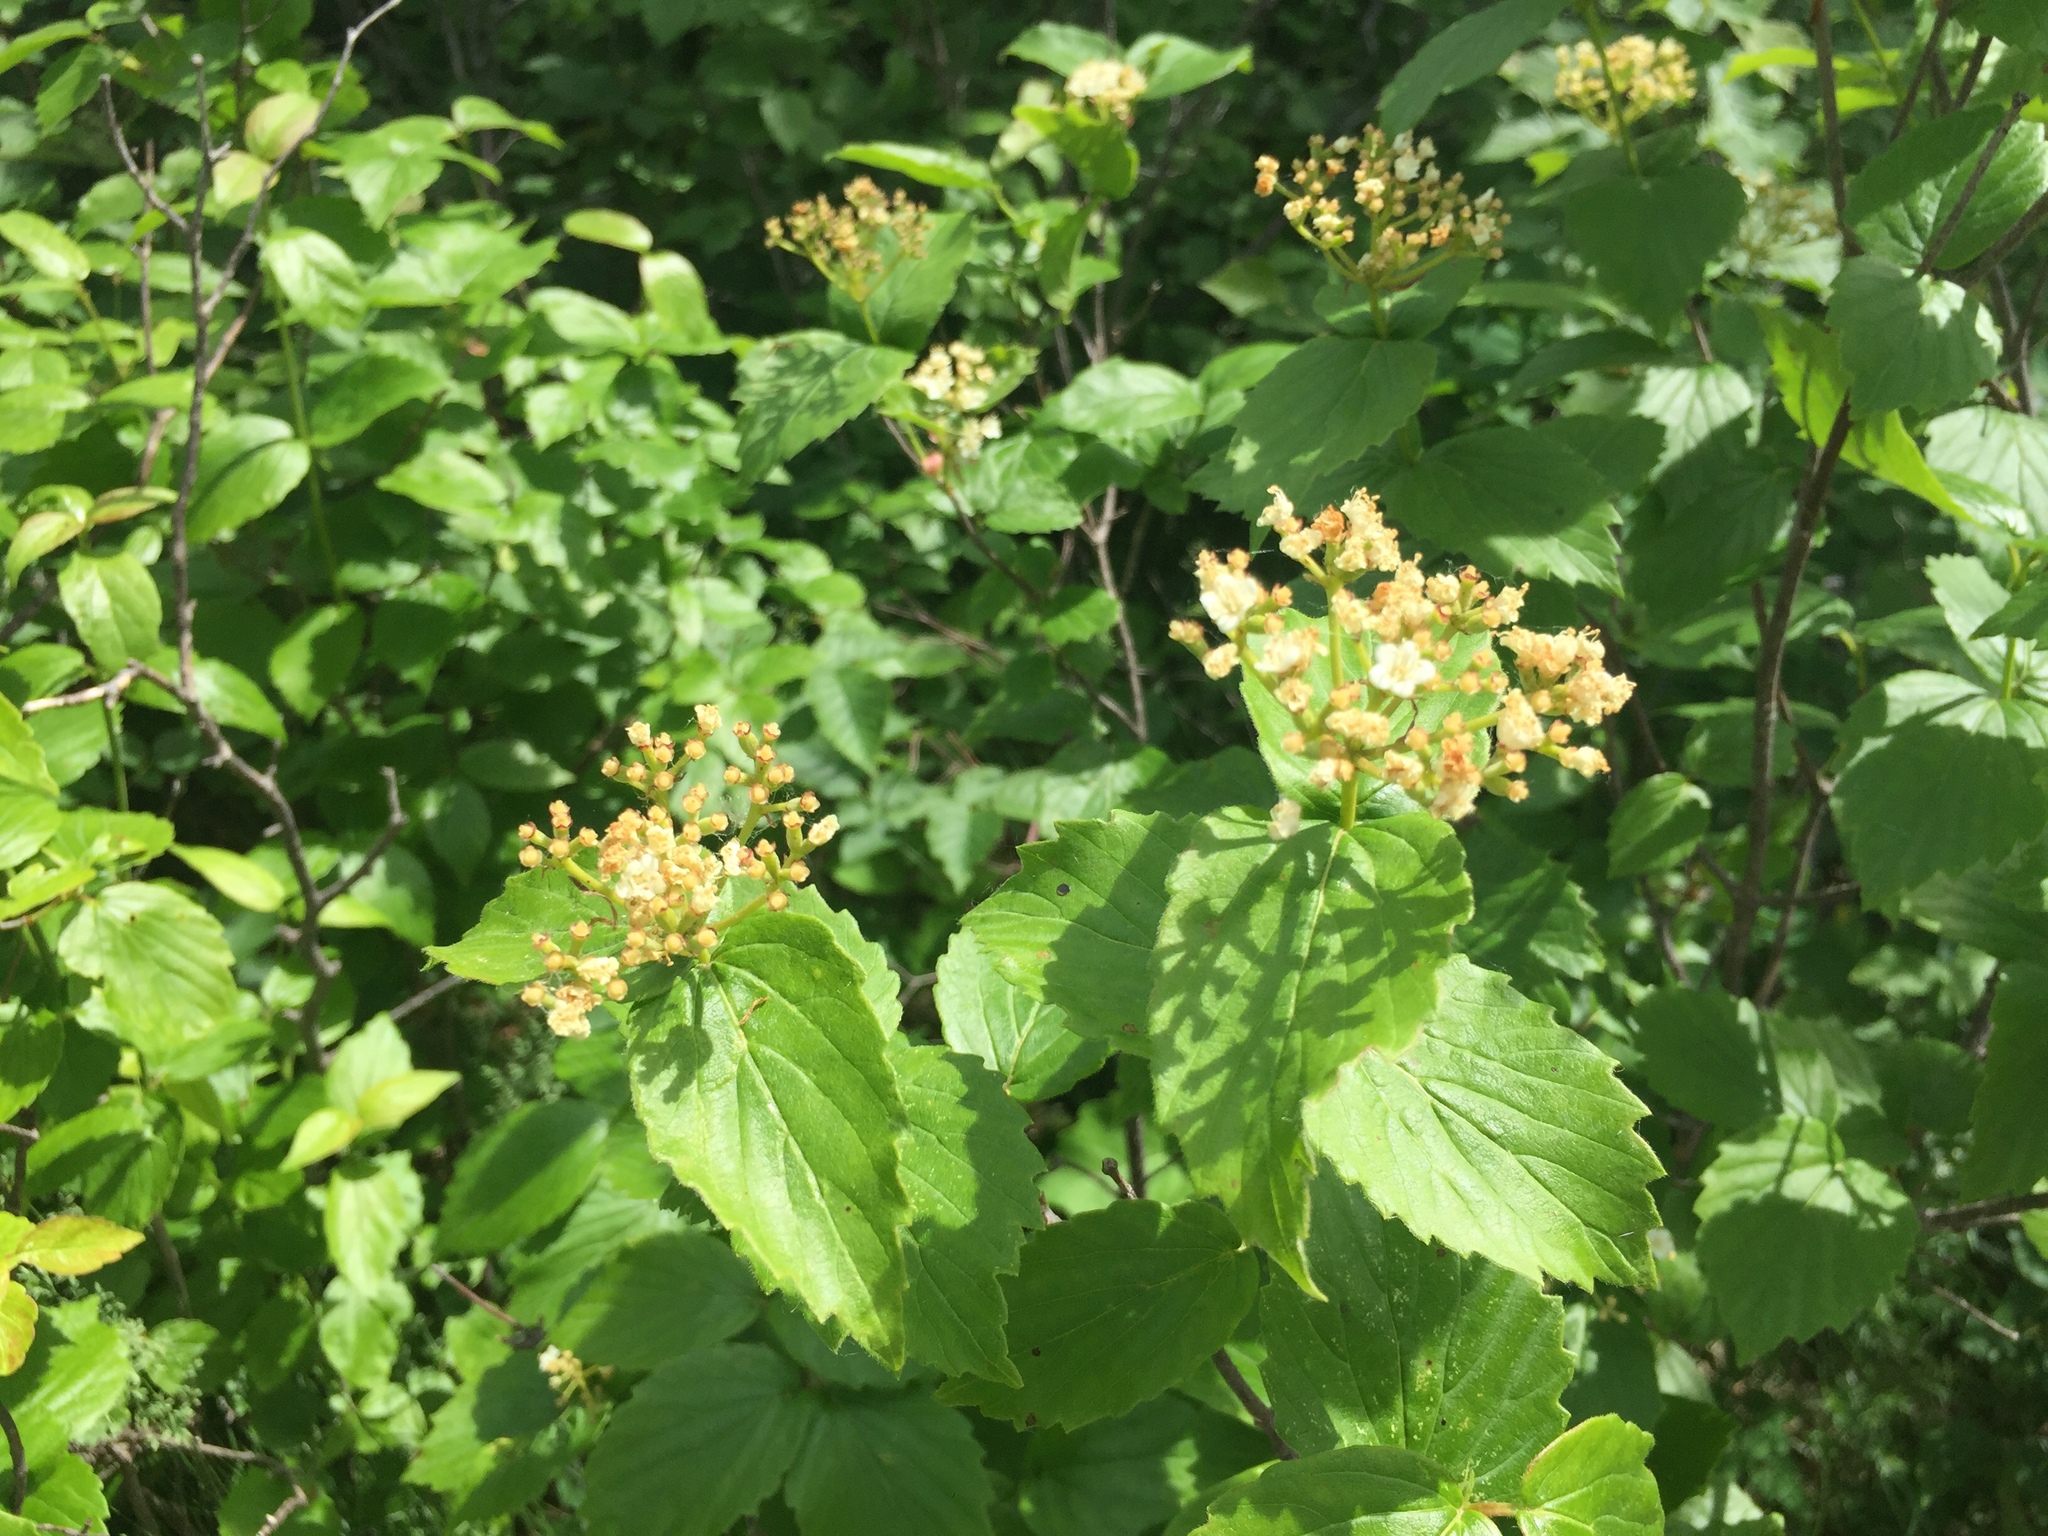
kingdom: Plantae
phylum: Tracheophyta
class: Magnoliopsida
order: Dipsacales
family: Viburnaceae
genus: Viburnum
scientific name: Viburnum rafinesqueanum
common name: Downy arrow-wood
